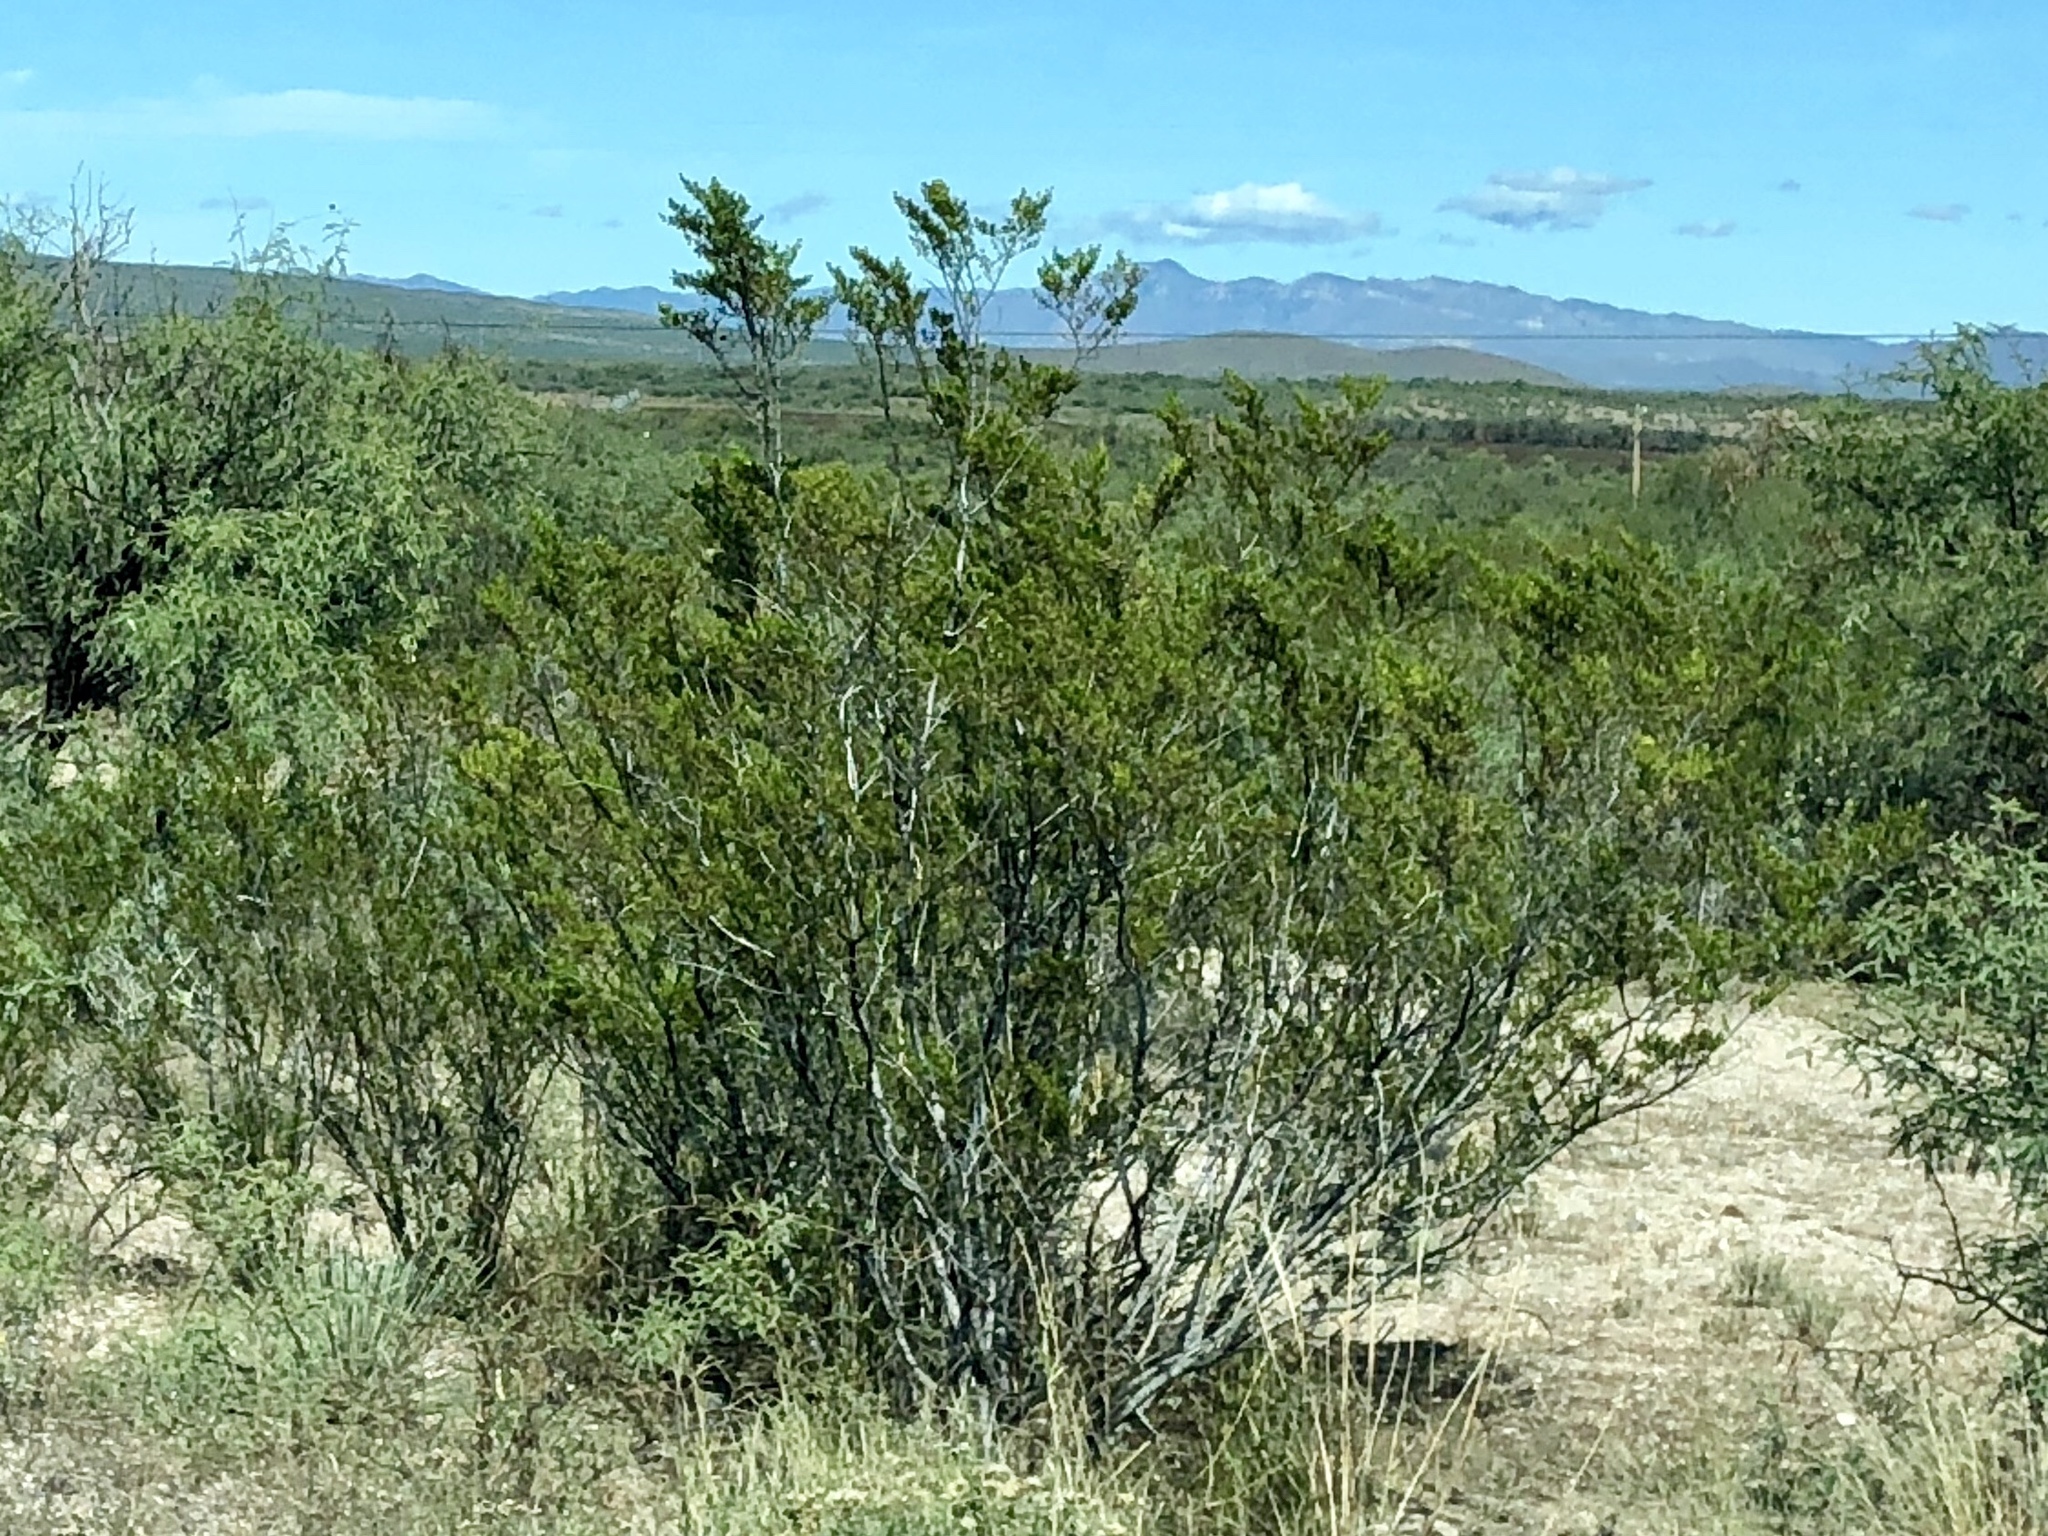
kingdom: Plantae
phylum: Tracheophyta
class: Magnoliopsida
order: Zygophyllales
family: Zygophyllaceae
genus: Larrea
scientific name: Larrea tridentata
